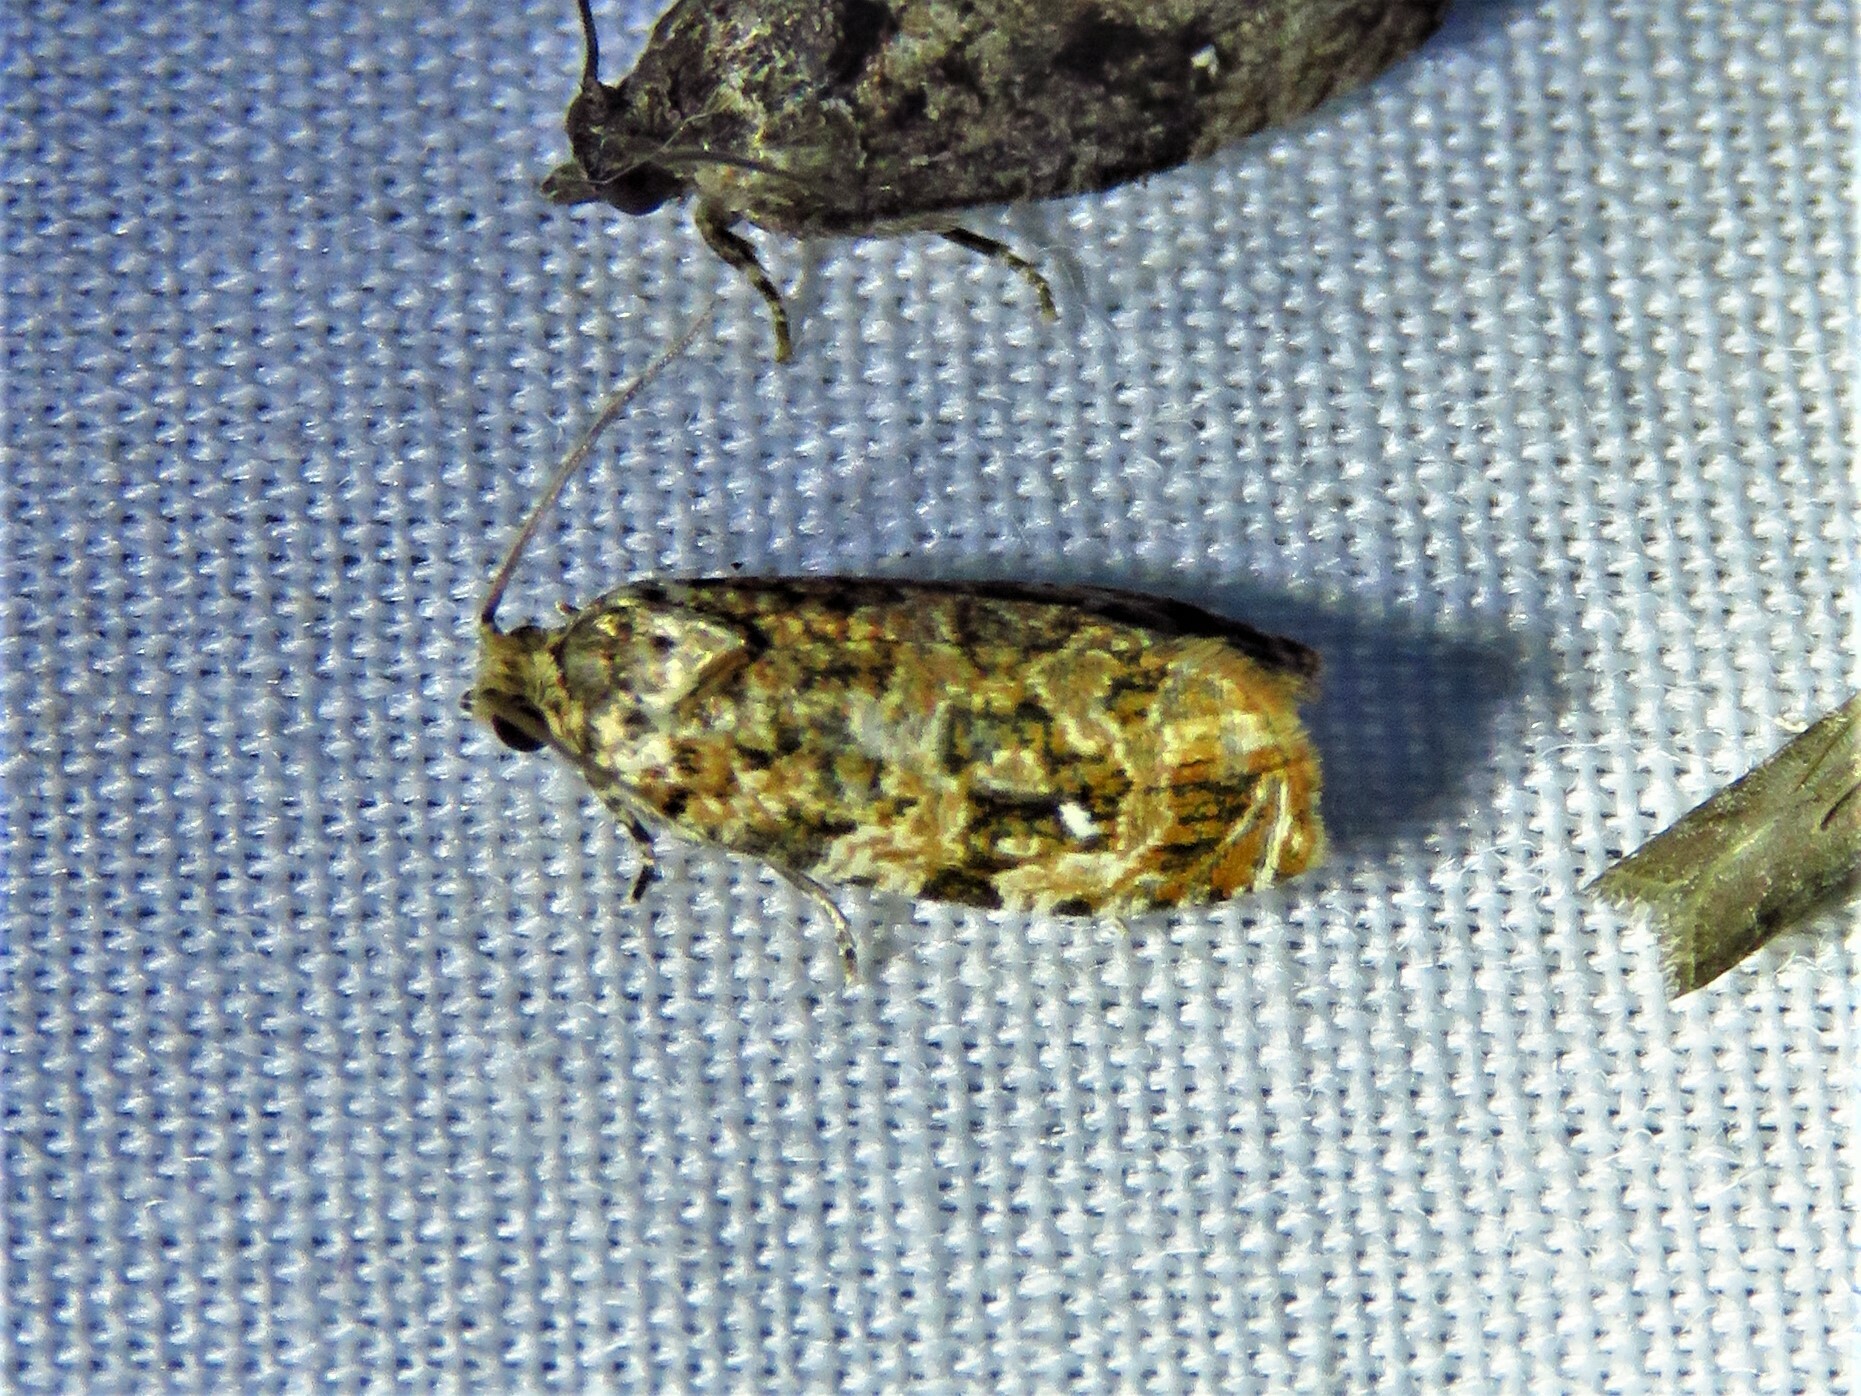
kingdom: Animalia
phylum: Arthropoda
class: Insecta
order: Lepidoptera
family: Tortricidae
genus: Phaecasiophora
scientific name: Phaecasiophora niveiguttana
